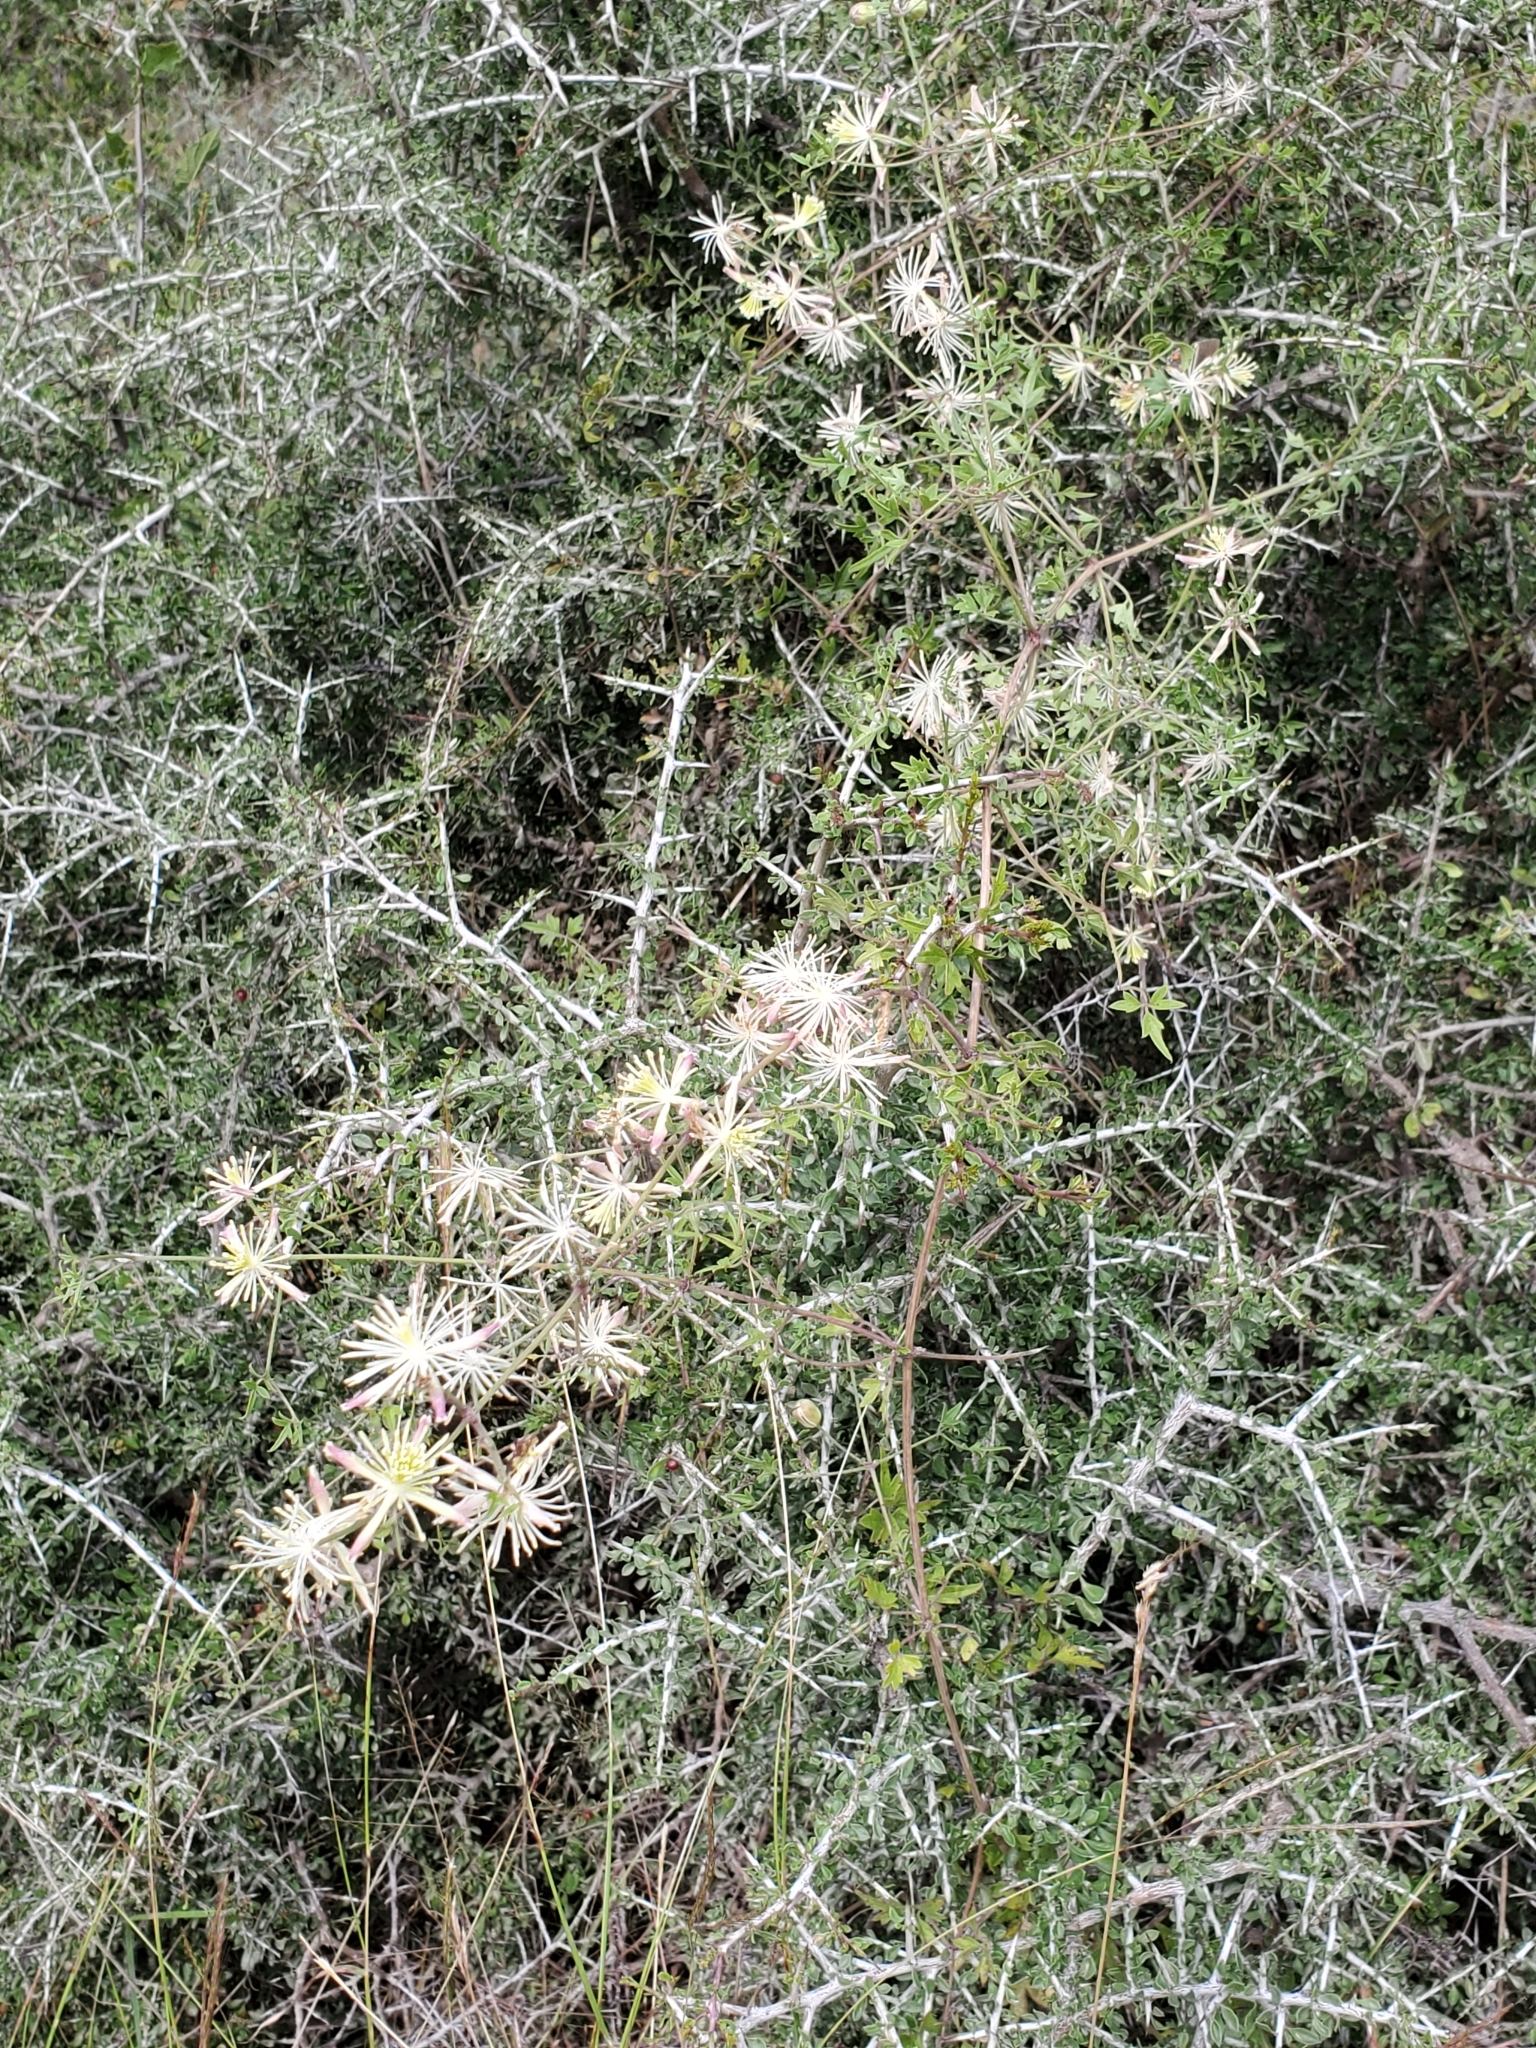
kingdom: Plantae
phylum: Tracheophyta
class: Magnoliopsida
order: Ranunculales
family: Ranunculaceae
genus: Clematis
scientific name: Clematis drummondii
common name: Texas virgin's bower
